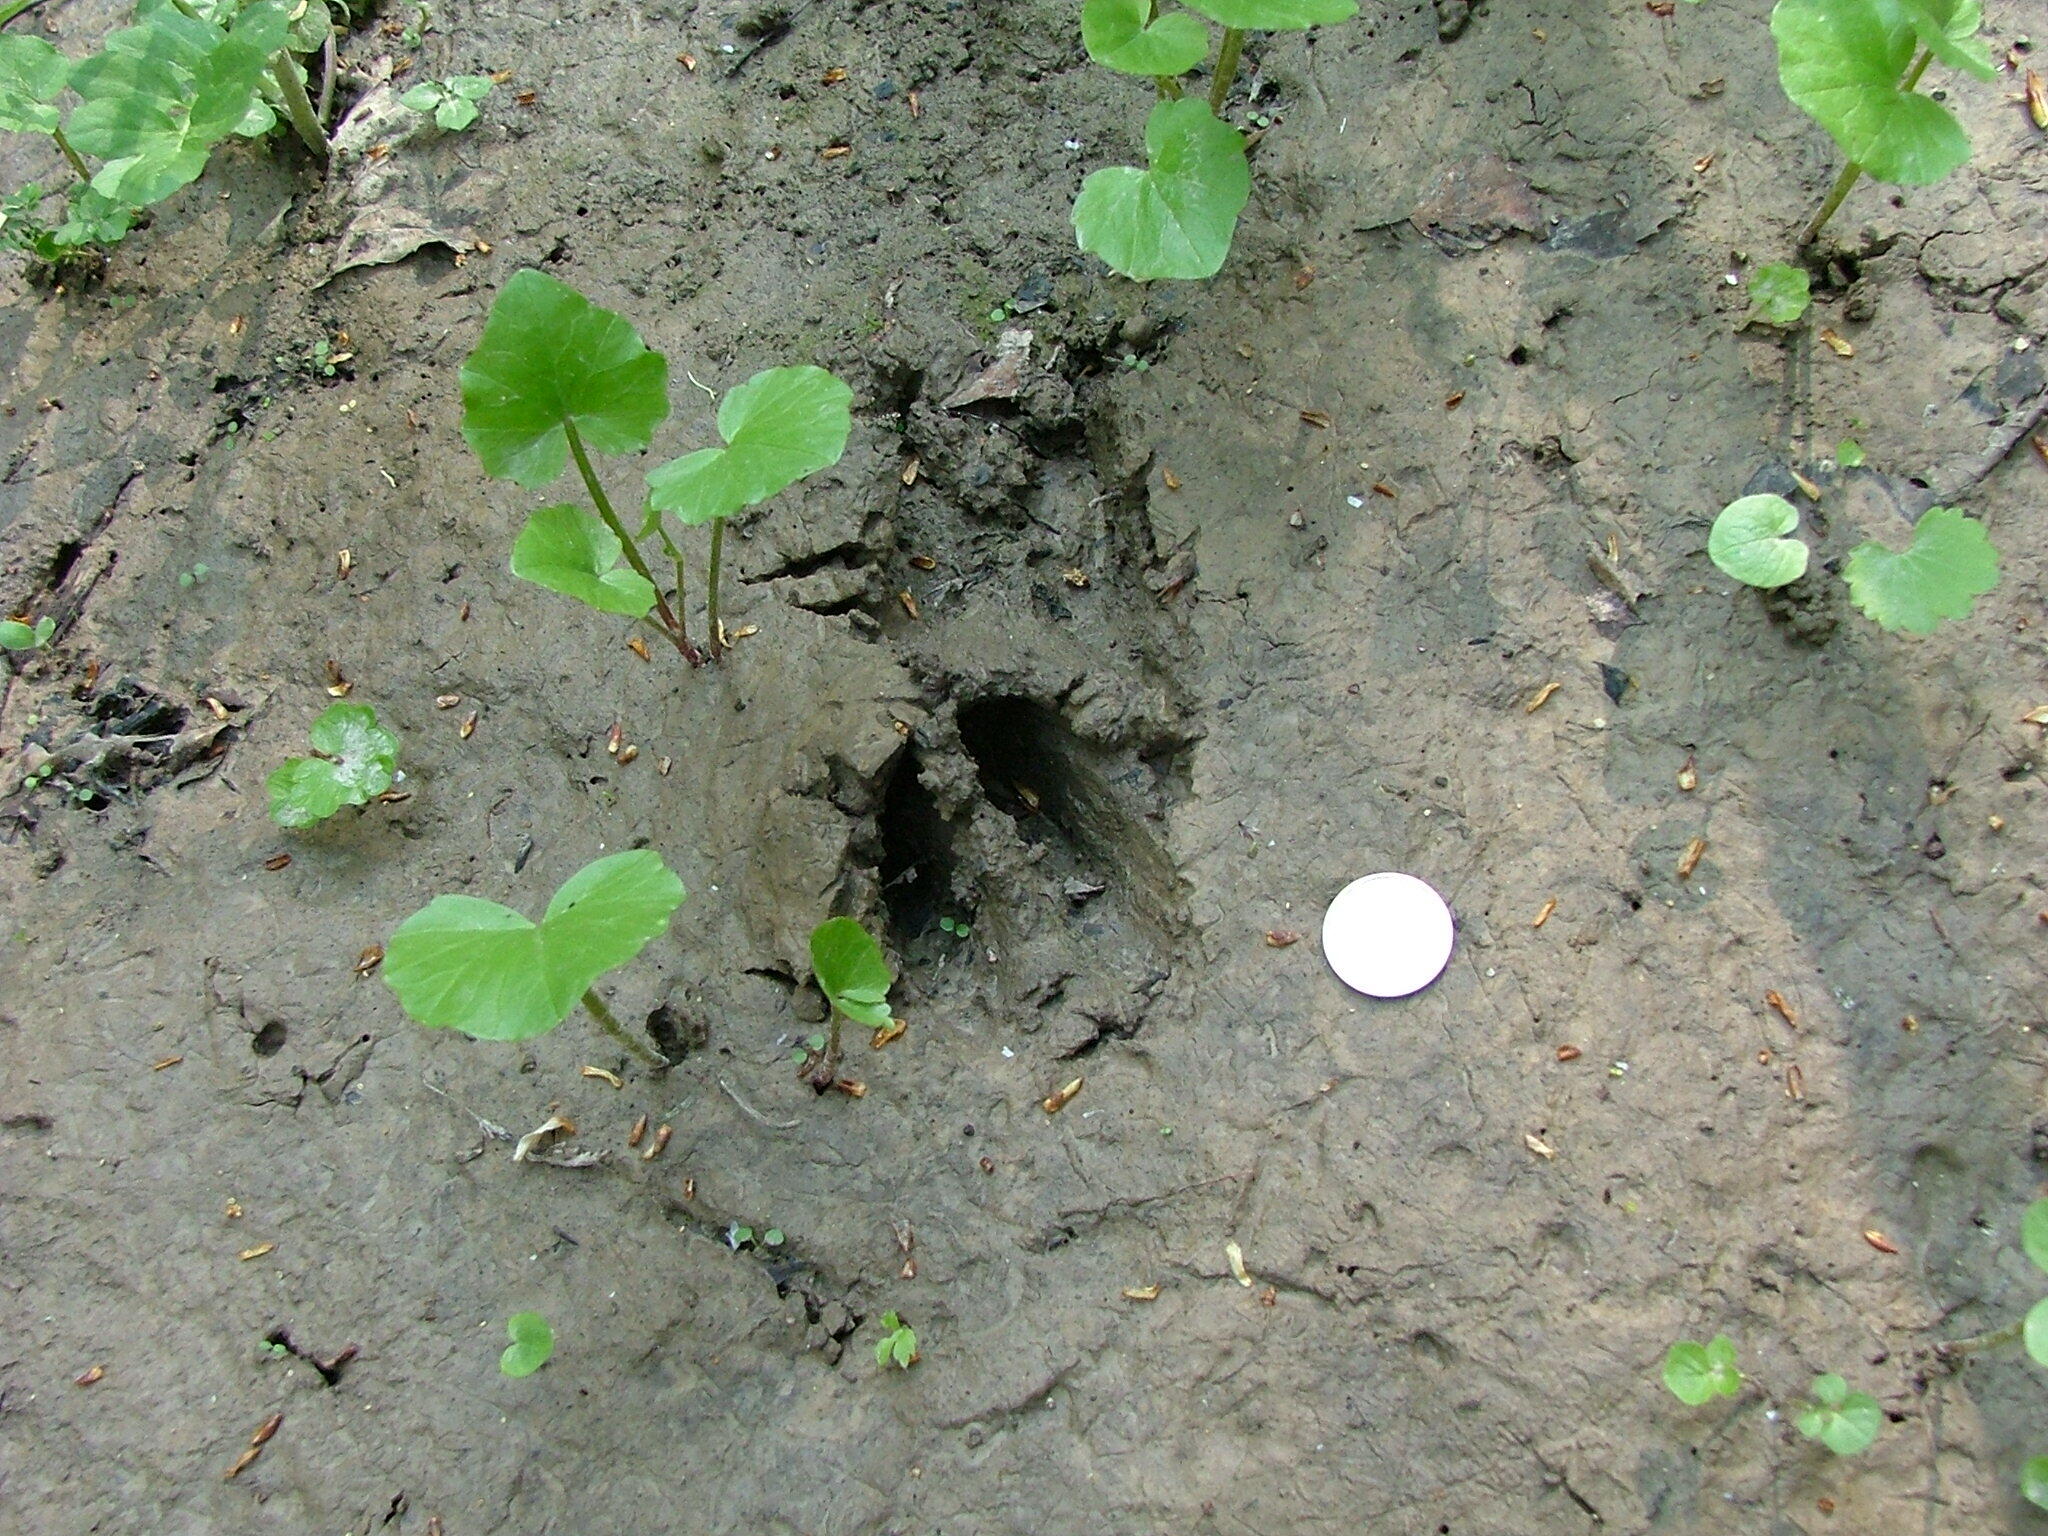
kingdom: Animalia
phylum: Chordata
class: Mammalia
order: Artiodactyla
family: Cervidae
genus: Capreolus
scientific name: Capreolus capreolus
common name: Western roe deer
